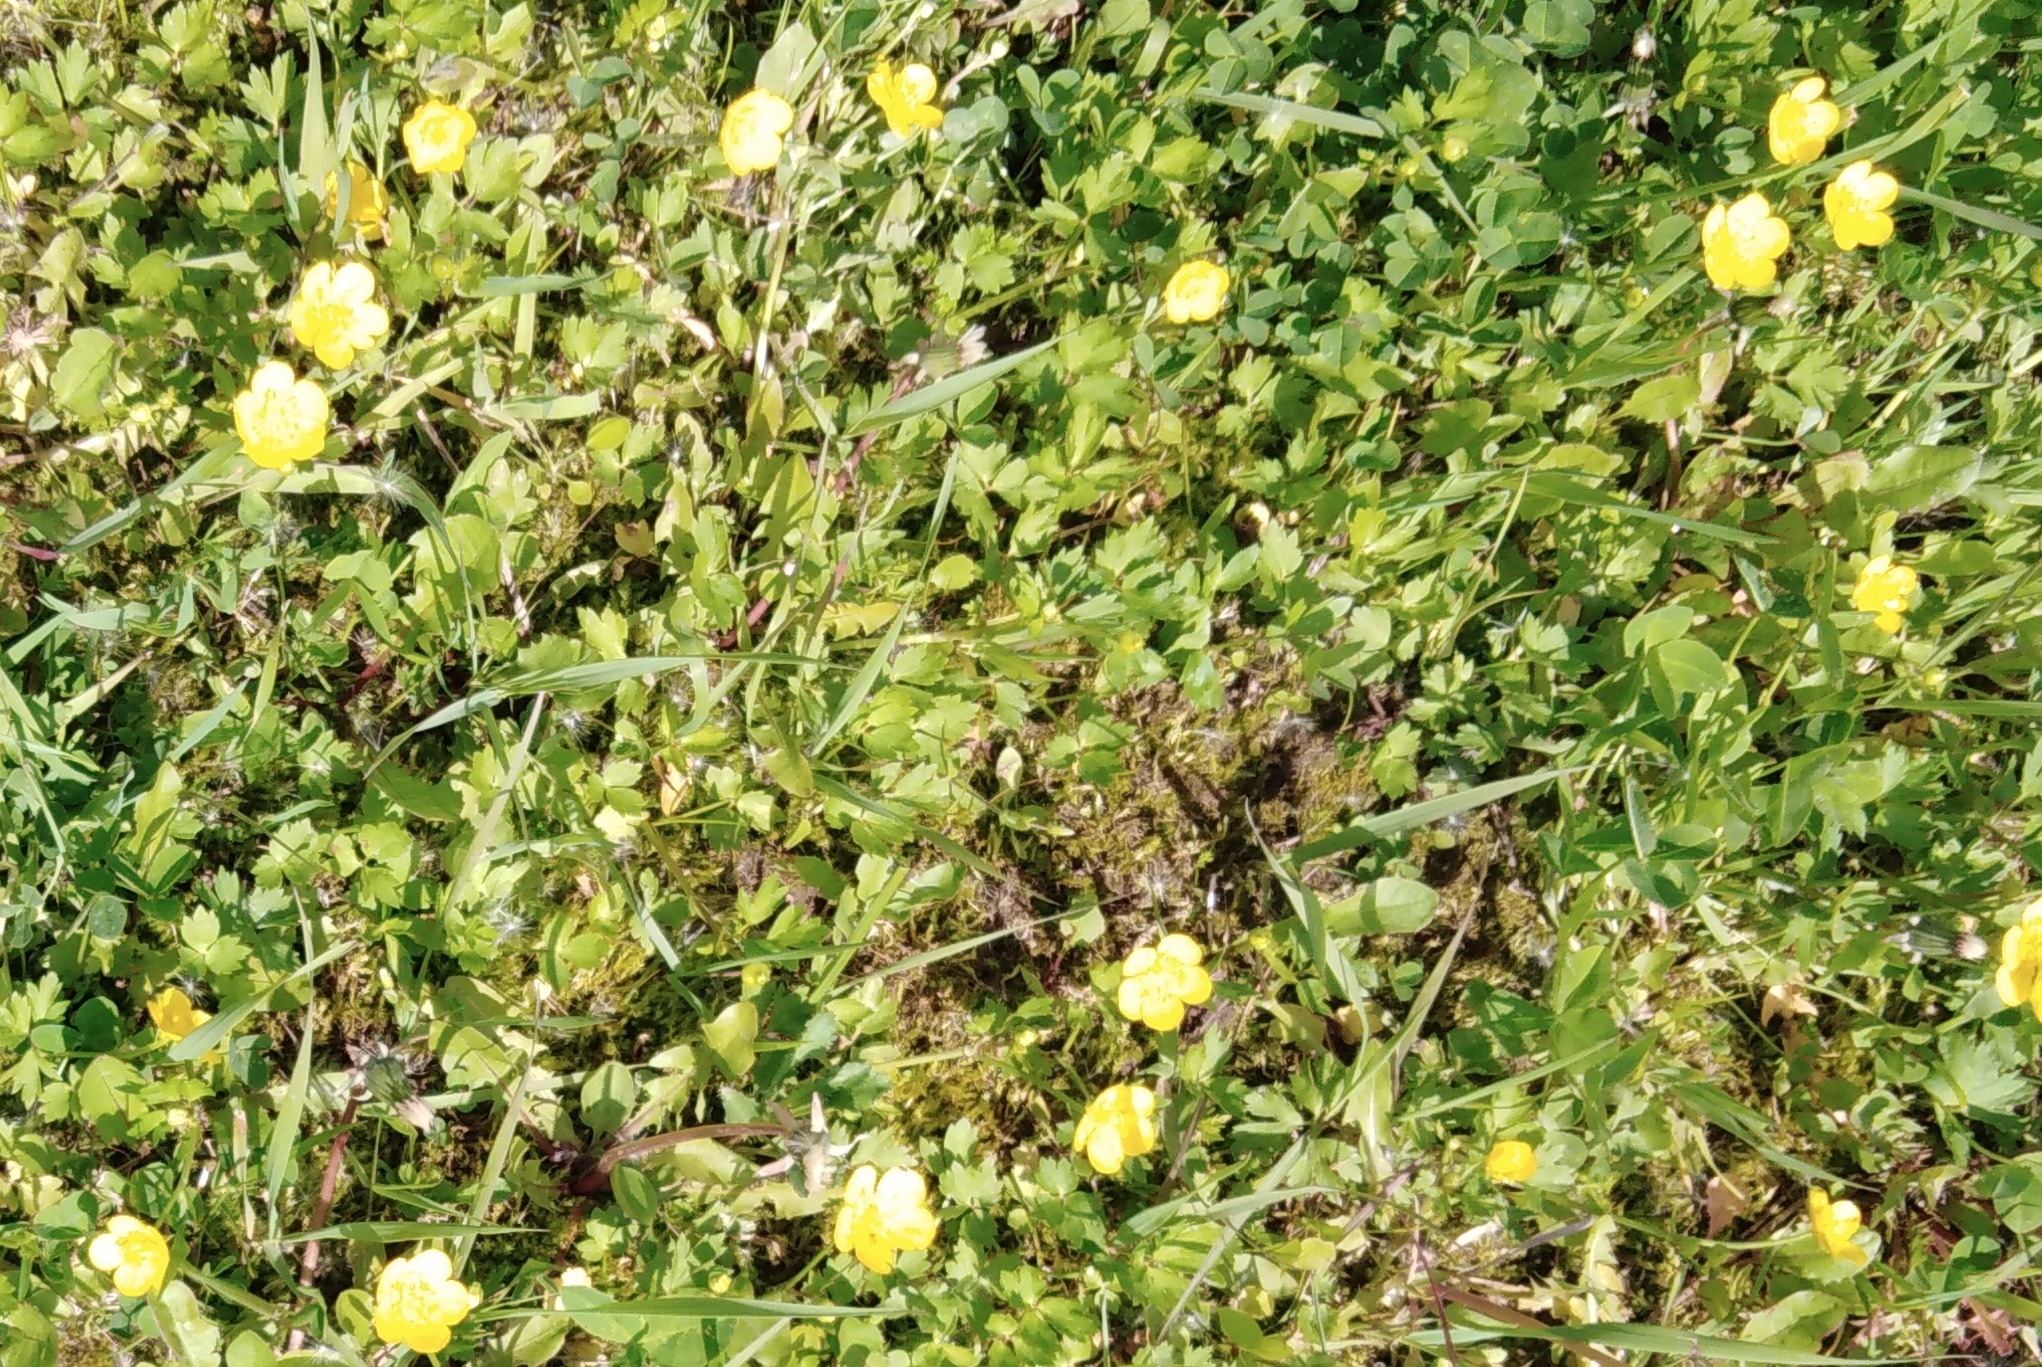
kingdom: Plantae
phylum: Tracheophyta
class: Magnoliopsida
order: Ranunculales
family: Ranunculaceae
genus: Ranunculus
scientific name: Ranunculus repens
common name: Creeping buttercup
